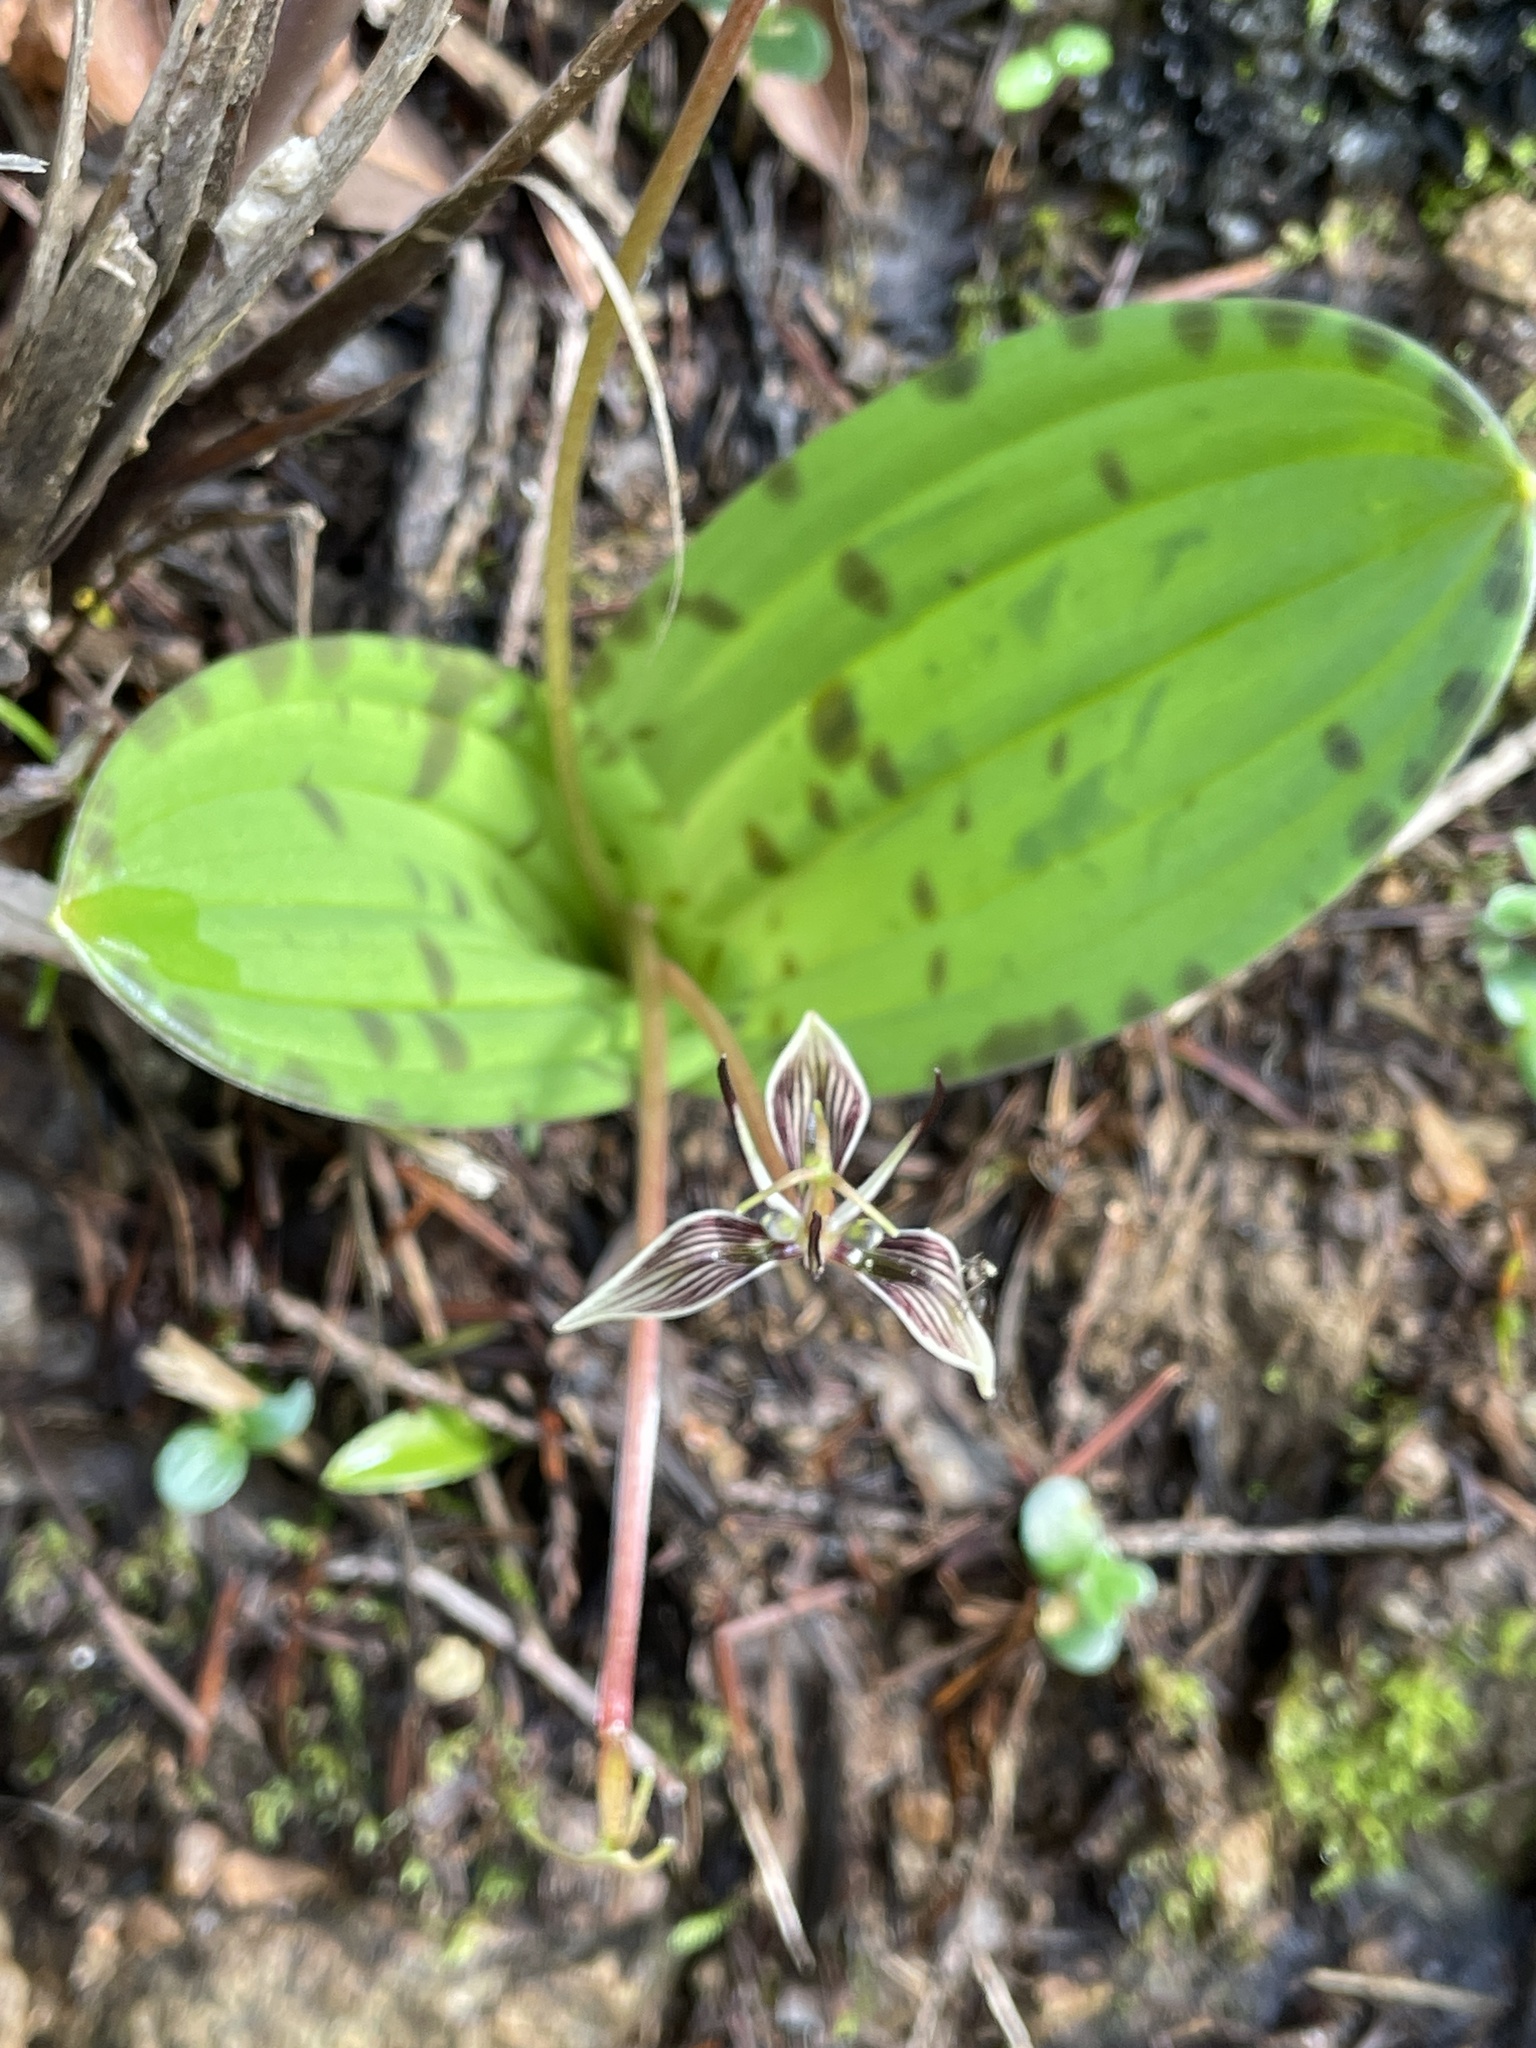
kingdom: Plantae
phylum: Tracheophyta
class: Liliopsida
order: Liliales
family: Liliaceae
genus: Scoliopus
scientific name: Scoliopus bigelovii
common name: Foetid adder's-tongue
